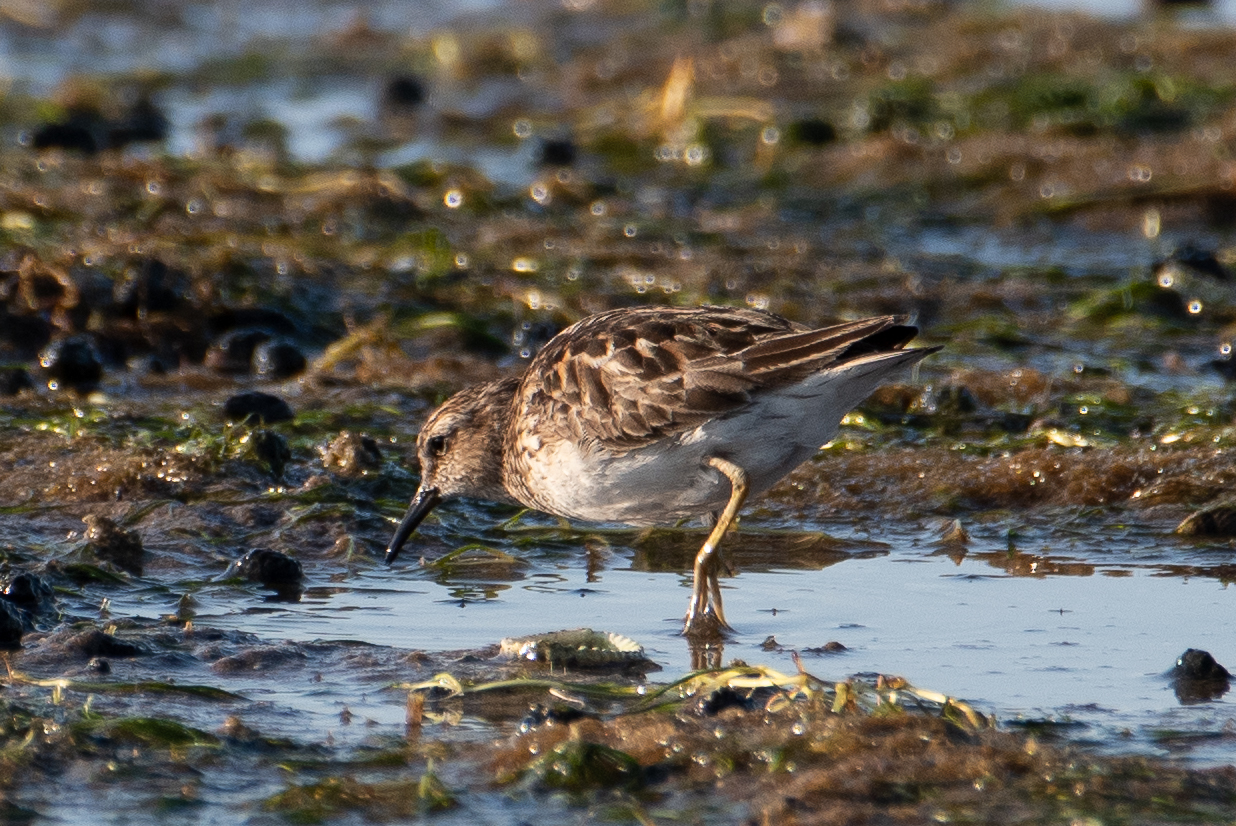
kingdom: Animalia
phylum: Chordata
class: Aves
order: Charadriiformes
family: Scolopacidae
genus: Calidris
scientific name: Calidris minutilla
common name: Least sandpiper
